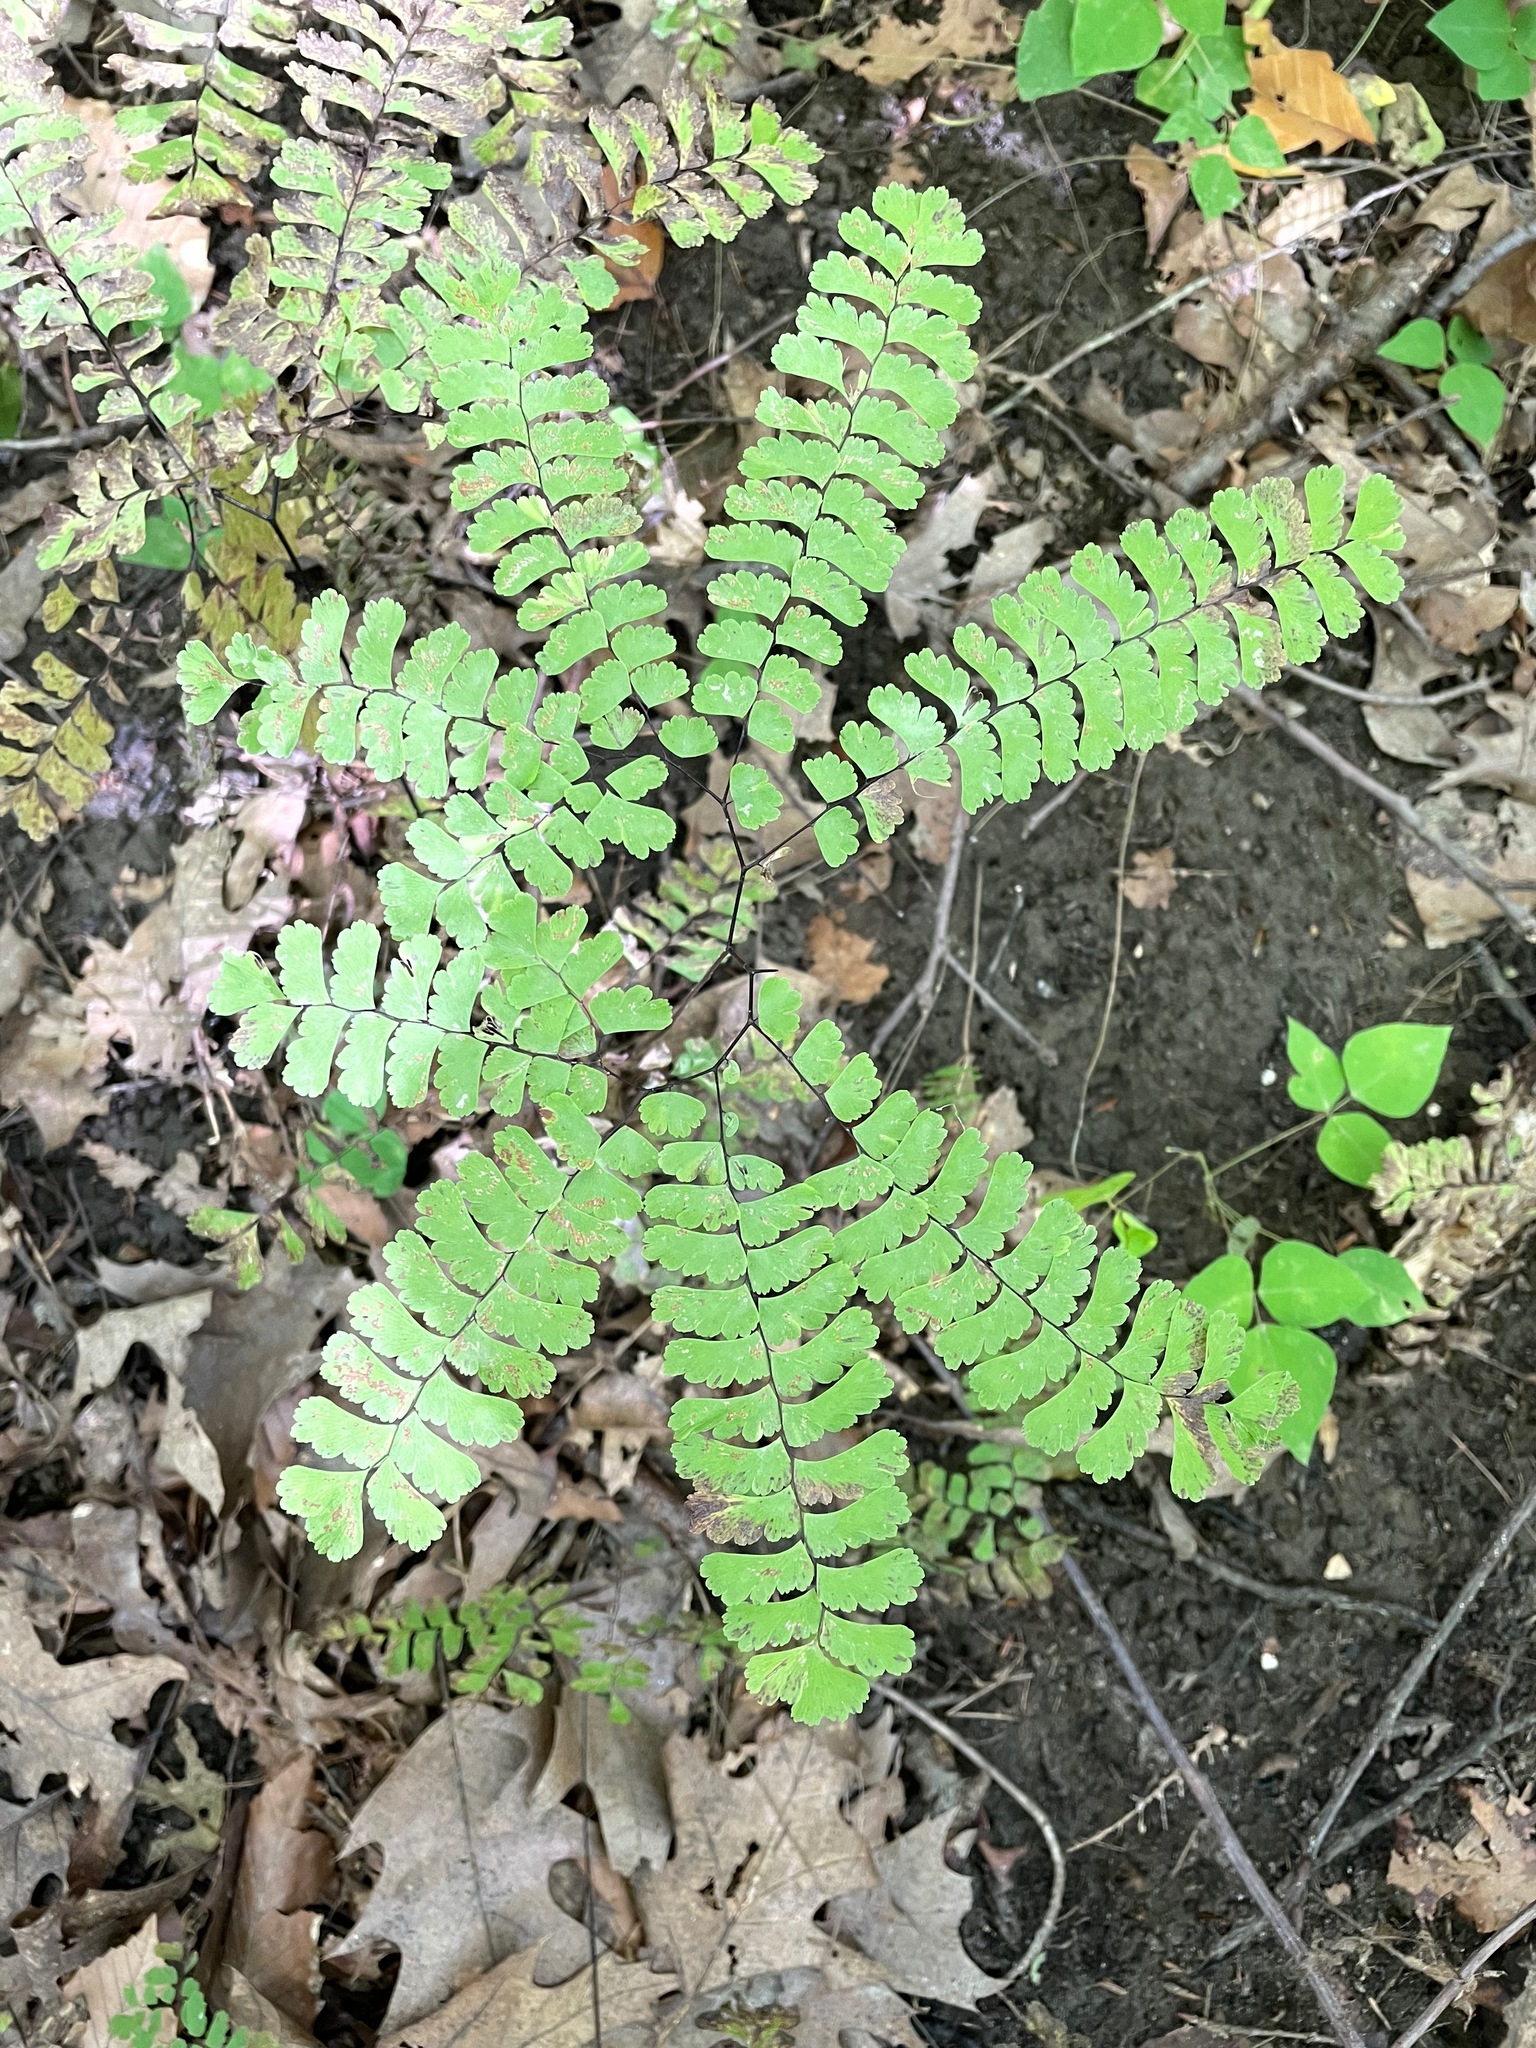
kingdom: Plantae
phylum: Tracheophyta
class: Polypodiopsida
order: Polypodiales
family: Pteridaceae
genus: Adiantum
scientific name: Adiantum pedatum
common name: Five-finger fern
